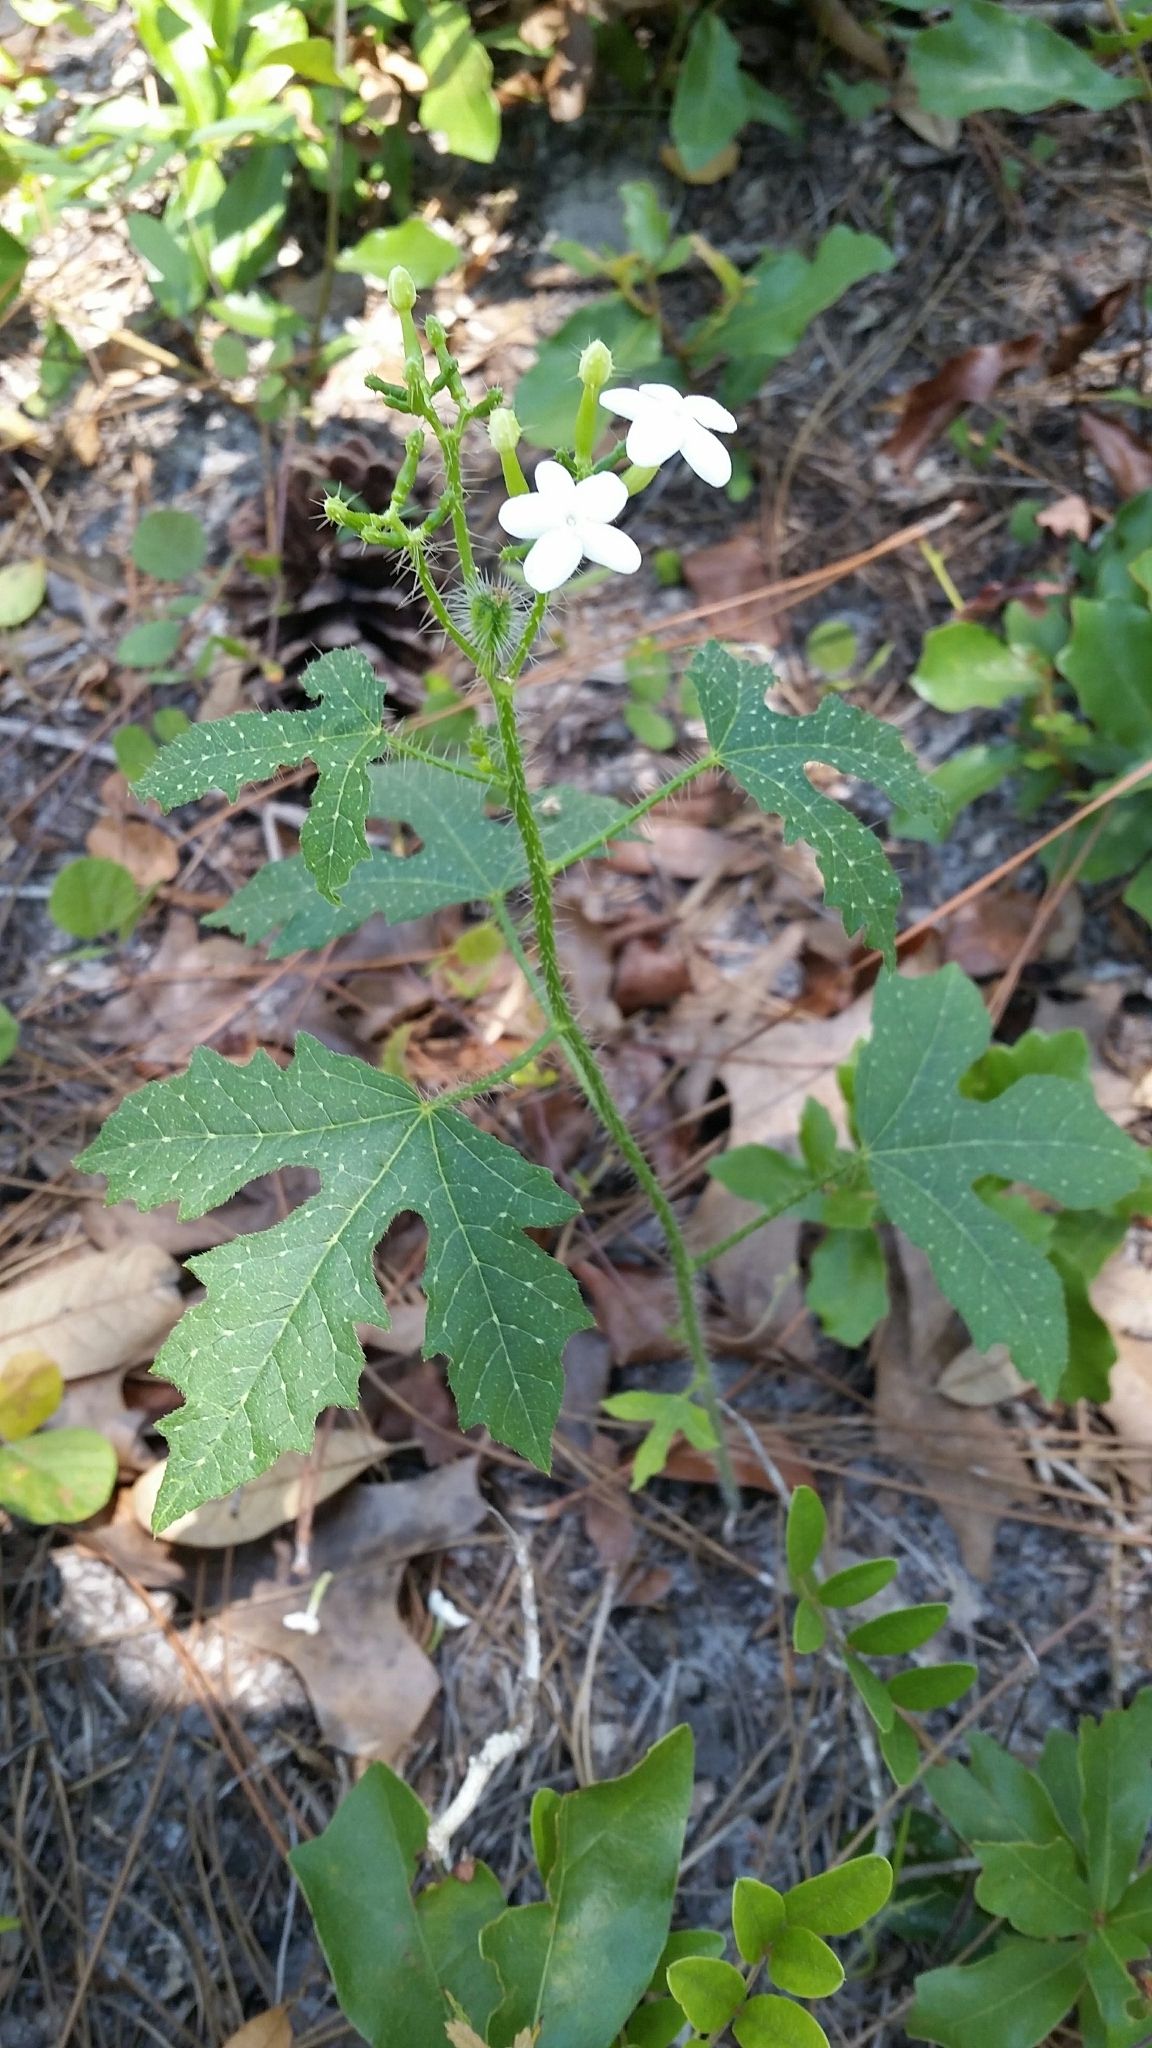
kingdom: Plantae
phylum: Tracheophyta
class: Magnoliopsida
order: Malpighiales
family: Euphorbiaceae
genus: Cnidoscolus
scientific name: Cnidoscolus stimulosus
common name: Bull-nettle
